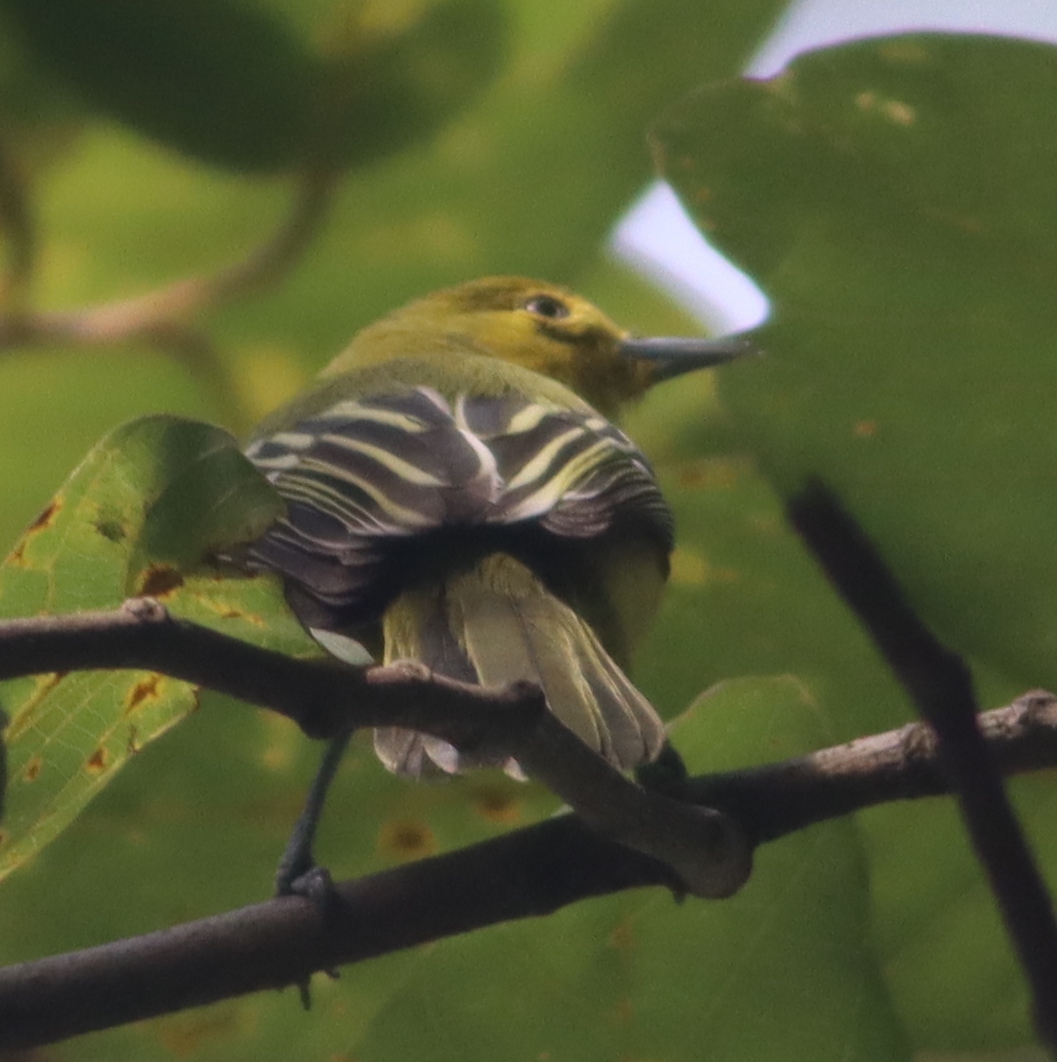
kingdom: Animalia
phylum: Chordata
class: Aves
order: Passeriformes
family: Aegithinidae
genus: Aegithina
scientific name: Aegithina tiphia
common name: Common iora
